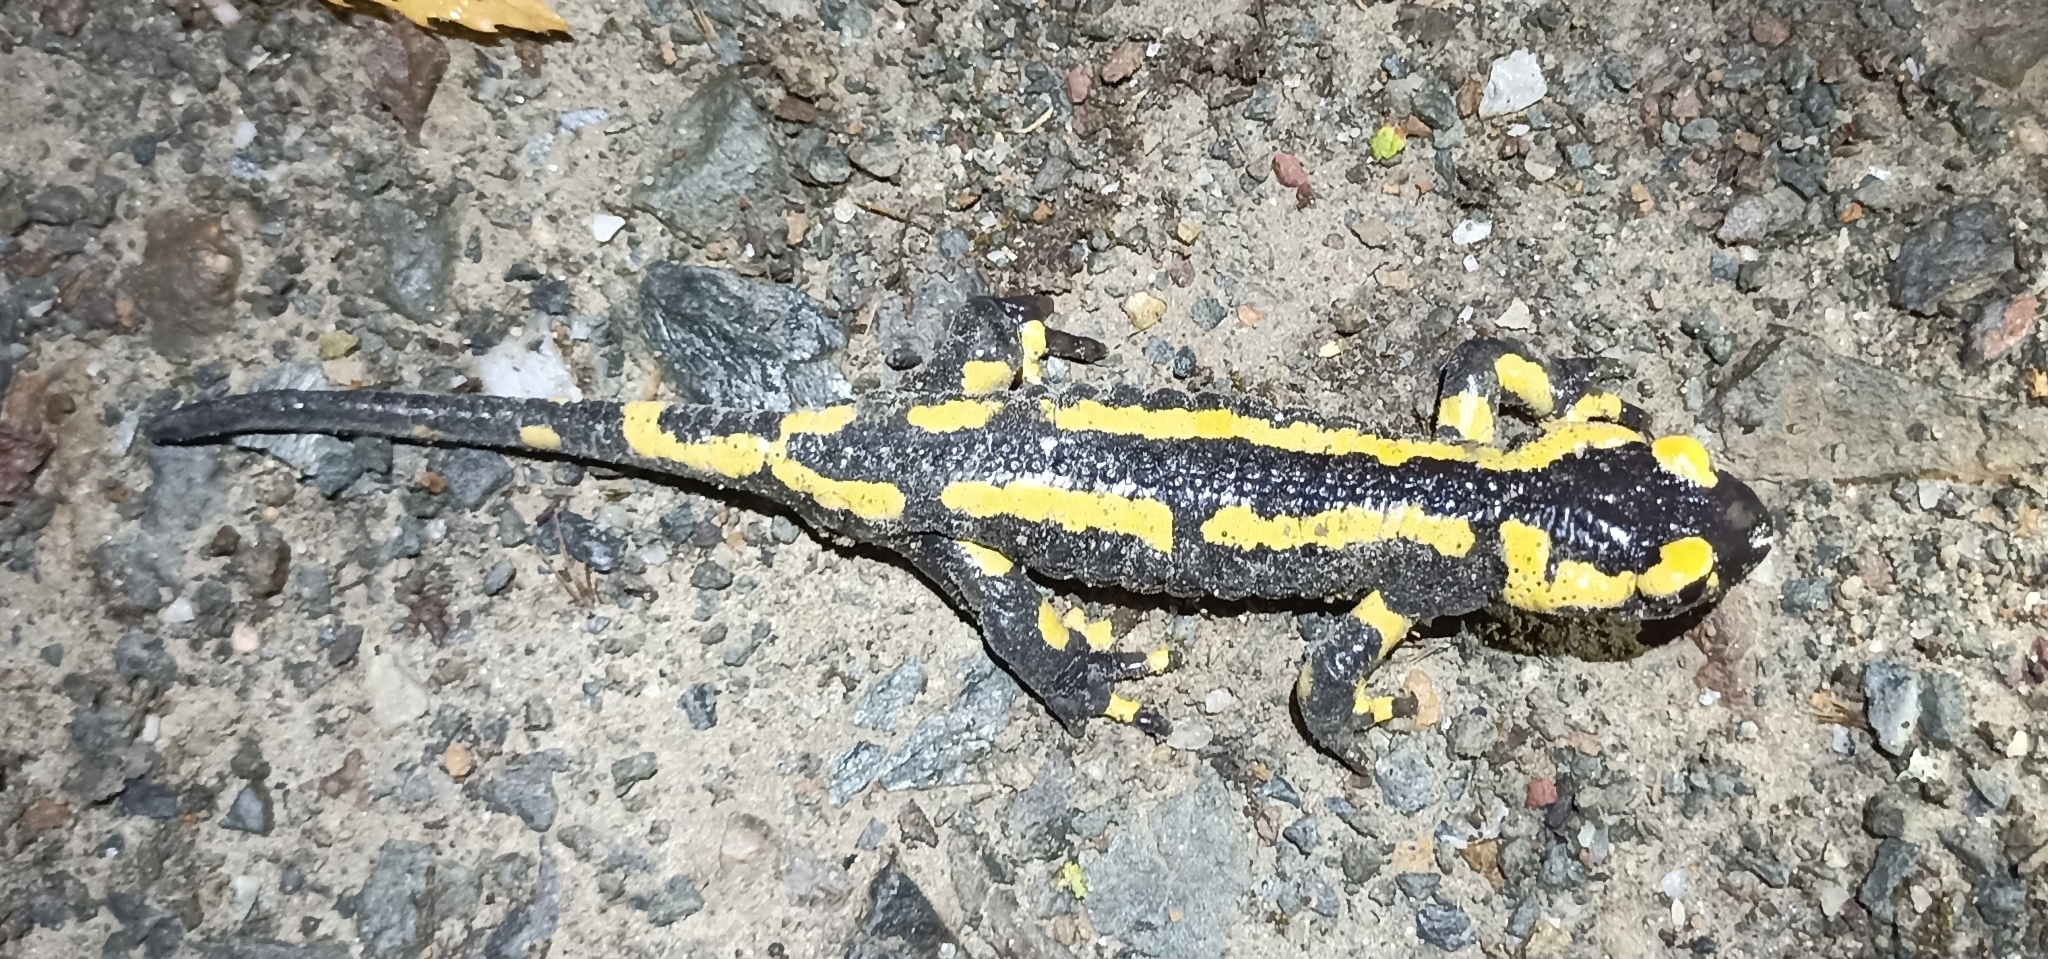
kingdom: Animalia
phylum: Chordata
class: Amphibia
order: Caudata
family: Salamandridae
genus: Salamandra
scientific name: Salamandra salamandra
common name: Fire salamander
